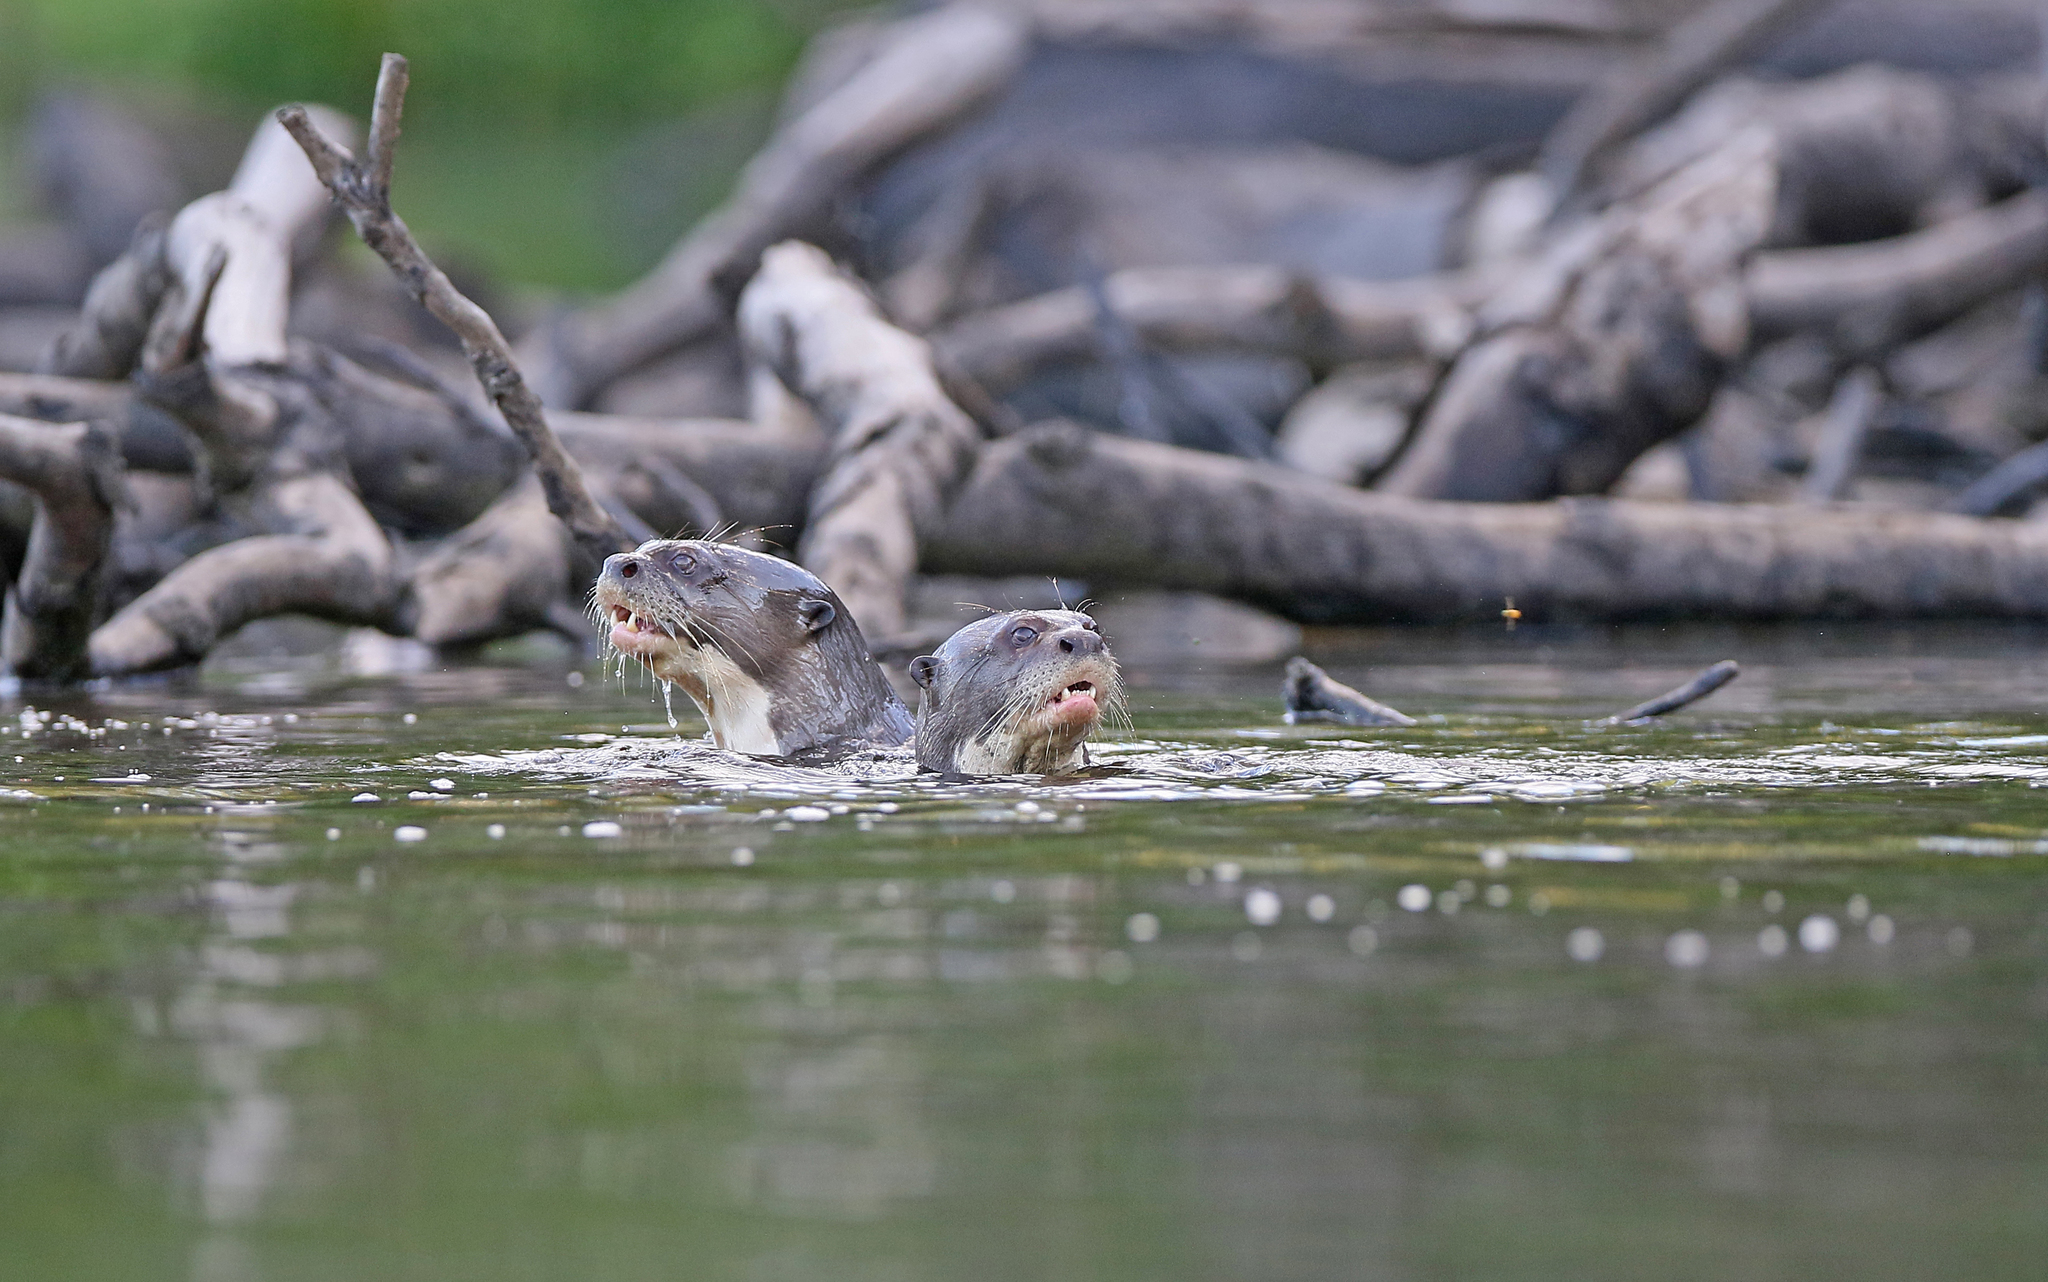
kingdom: Animalia
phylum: Chordata
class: Mammalia
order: Carnivora
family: Mustelidae
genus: Pteronura
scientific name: Pteronura brasiliensis
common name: Giant otter
